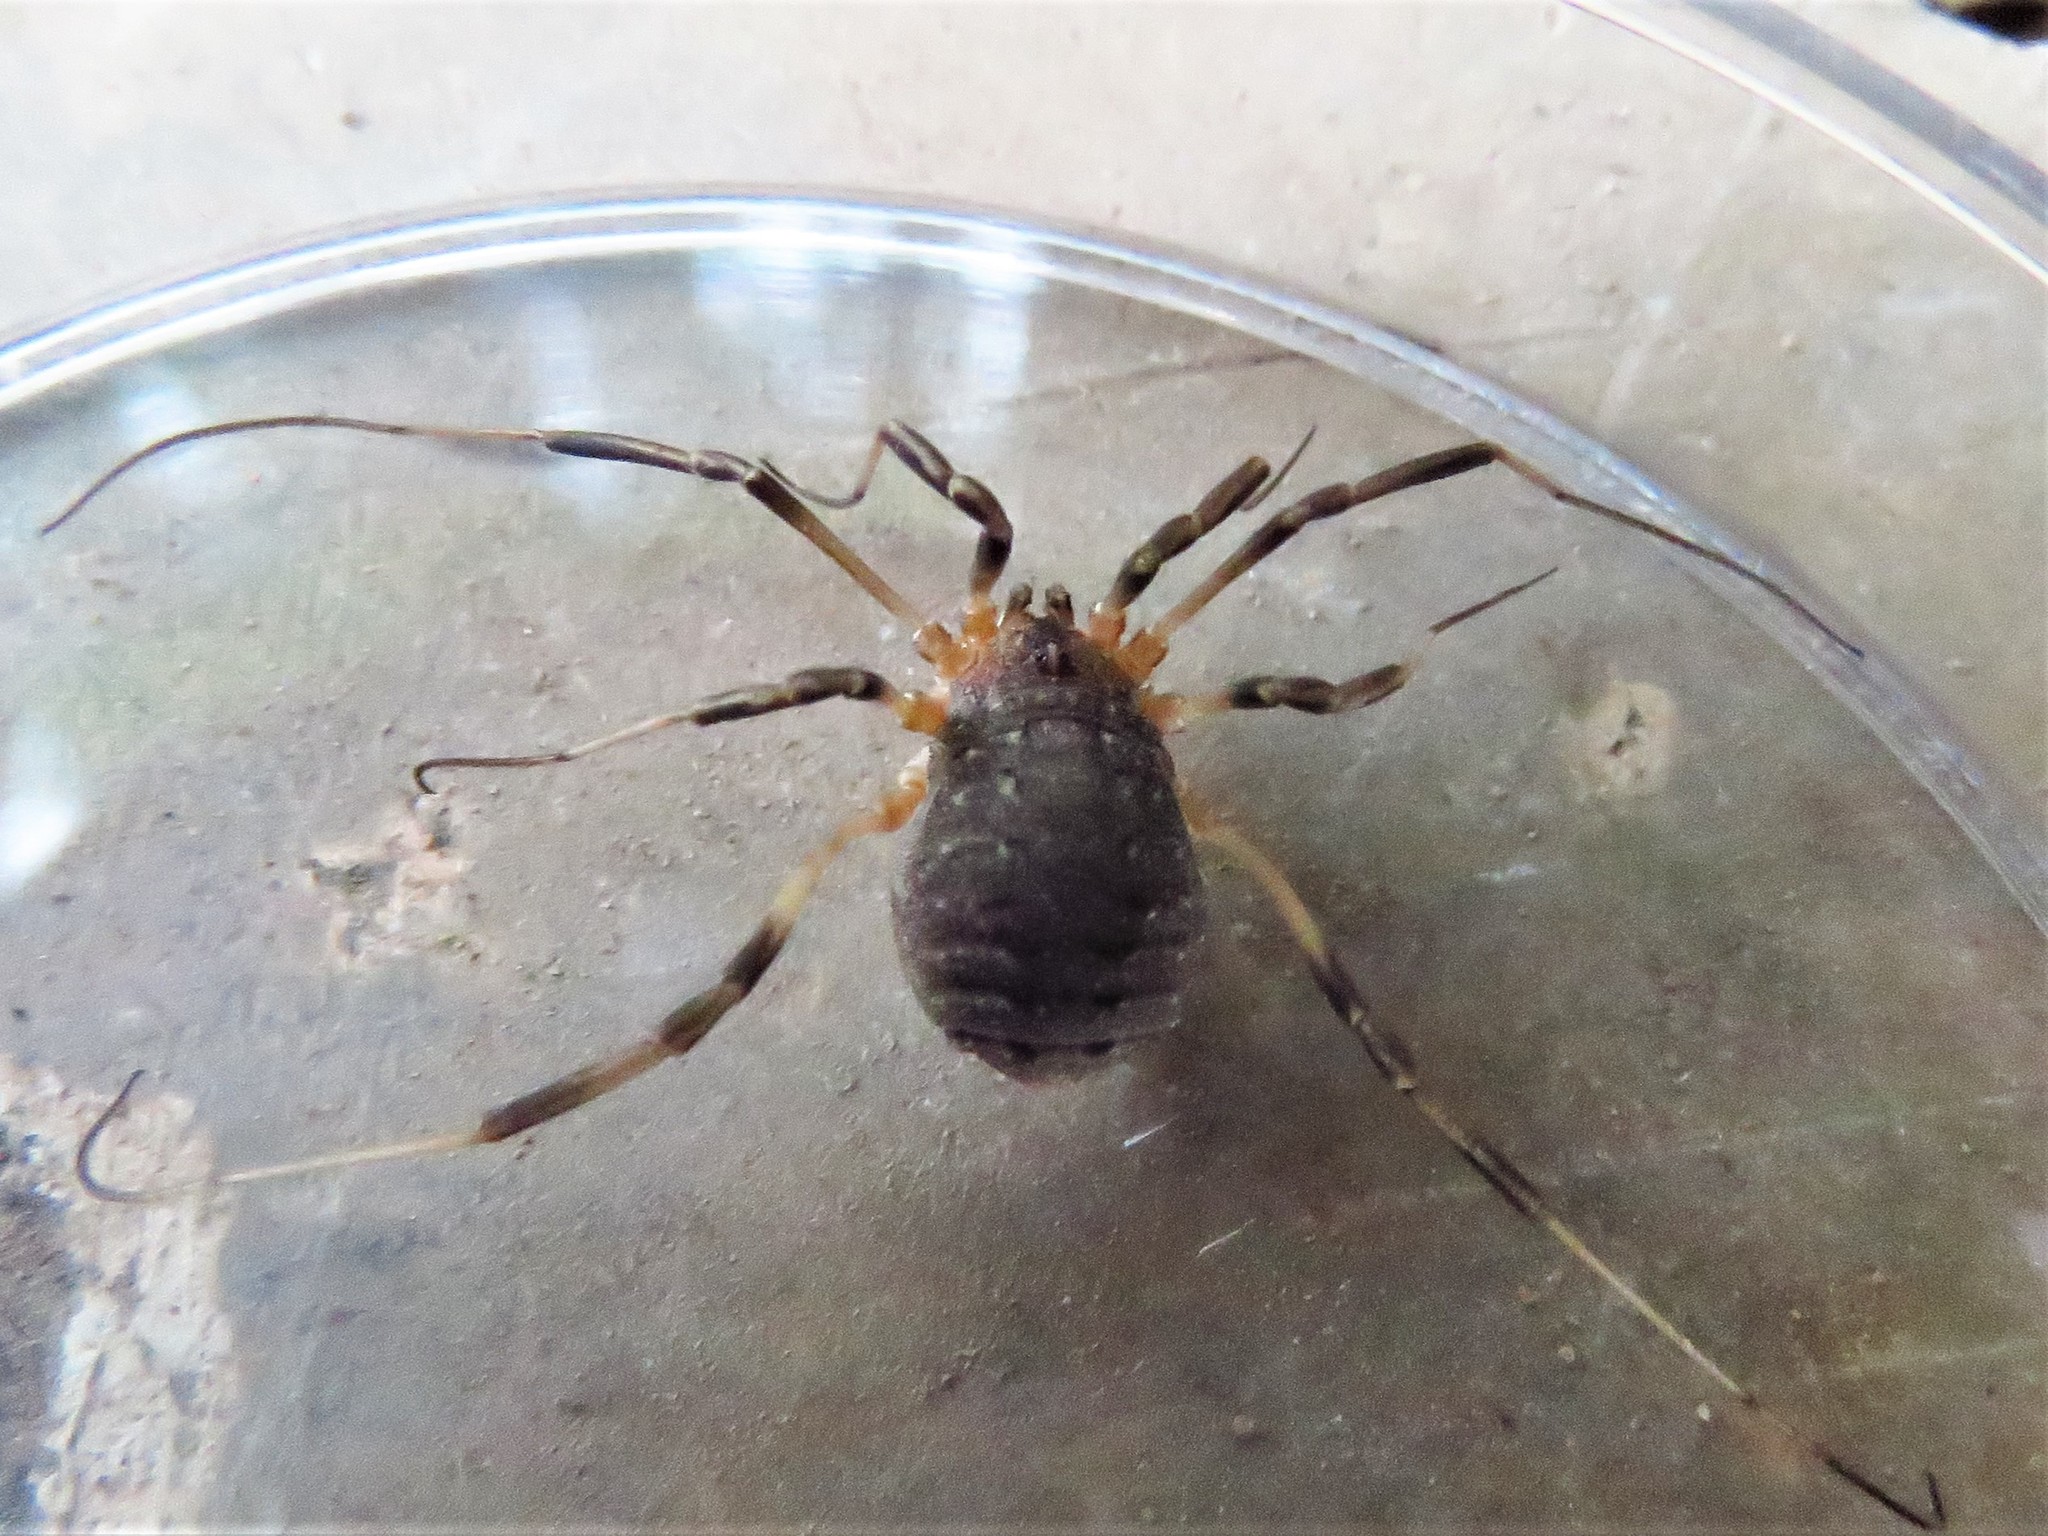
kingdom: Animalia
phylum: Arthropoda
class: Arachnida
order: Opiliones
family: Sclerosomatidae
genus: Eumesosoma
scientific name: Eumesosoma roeweri
